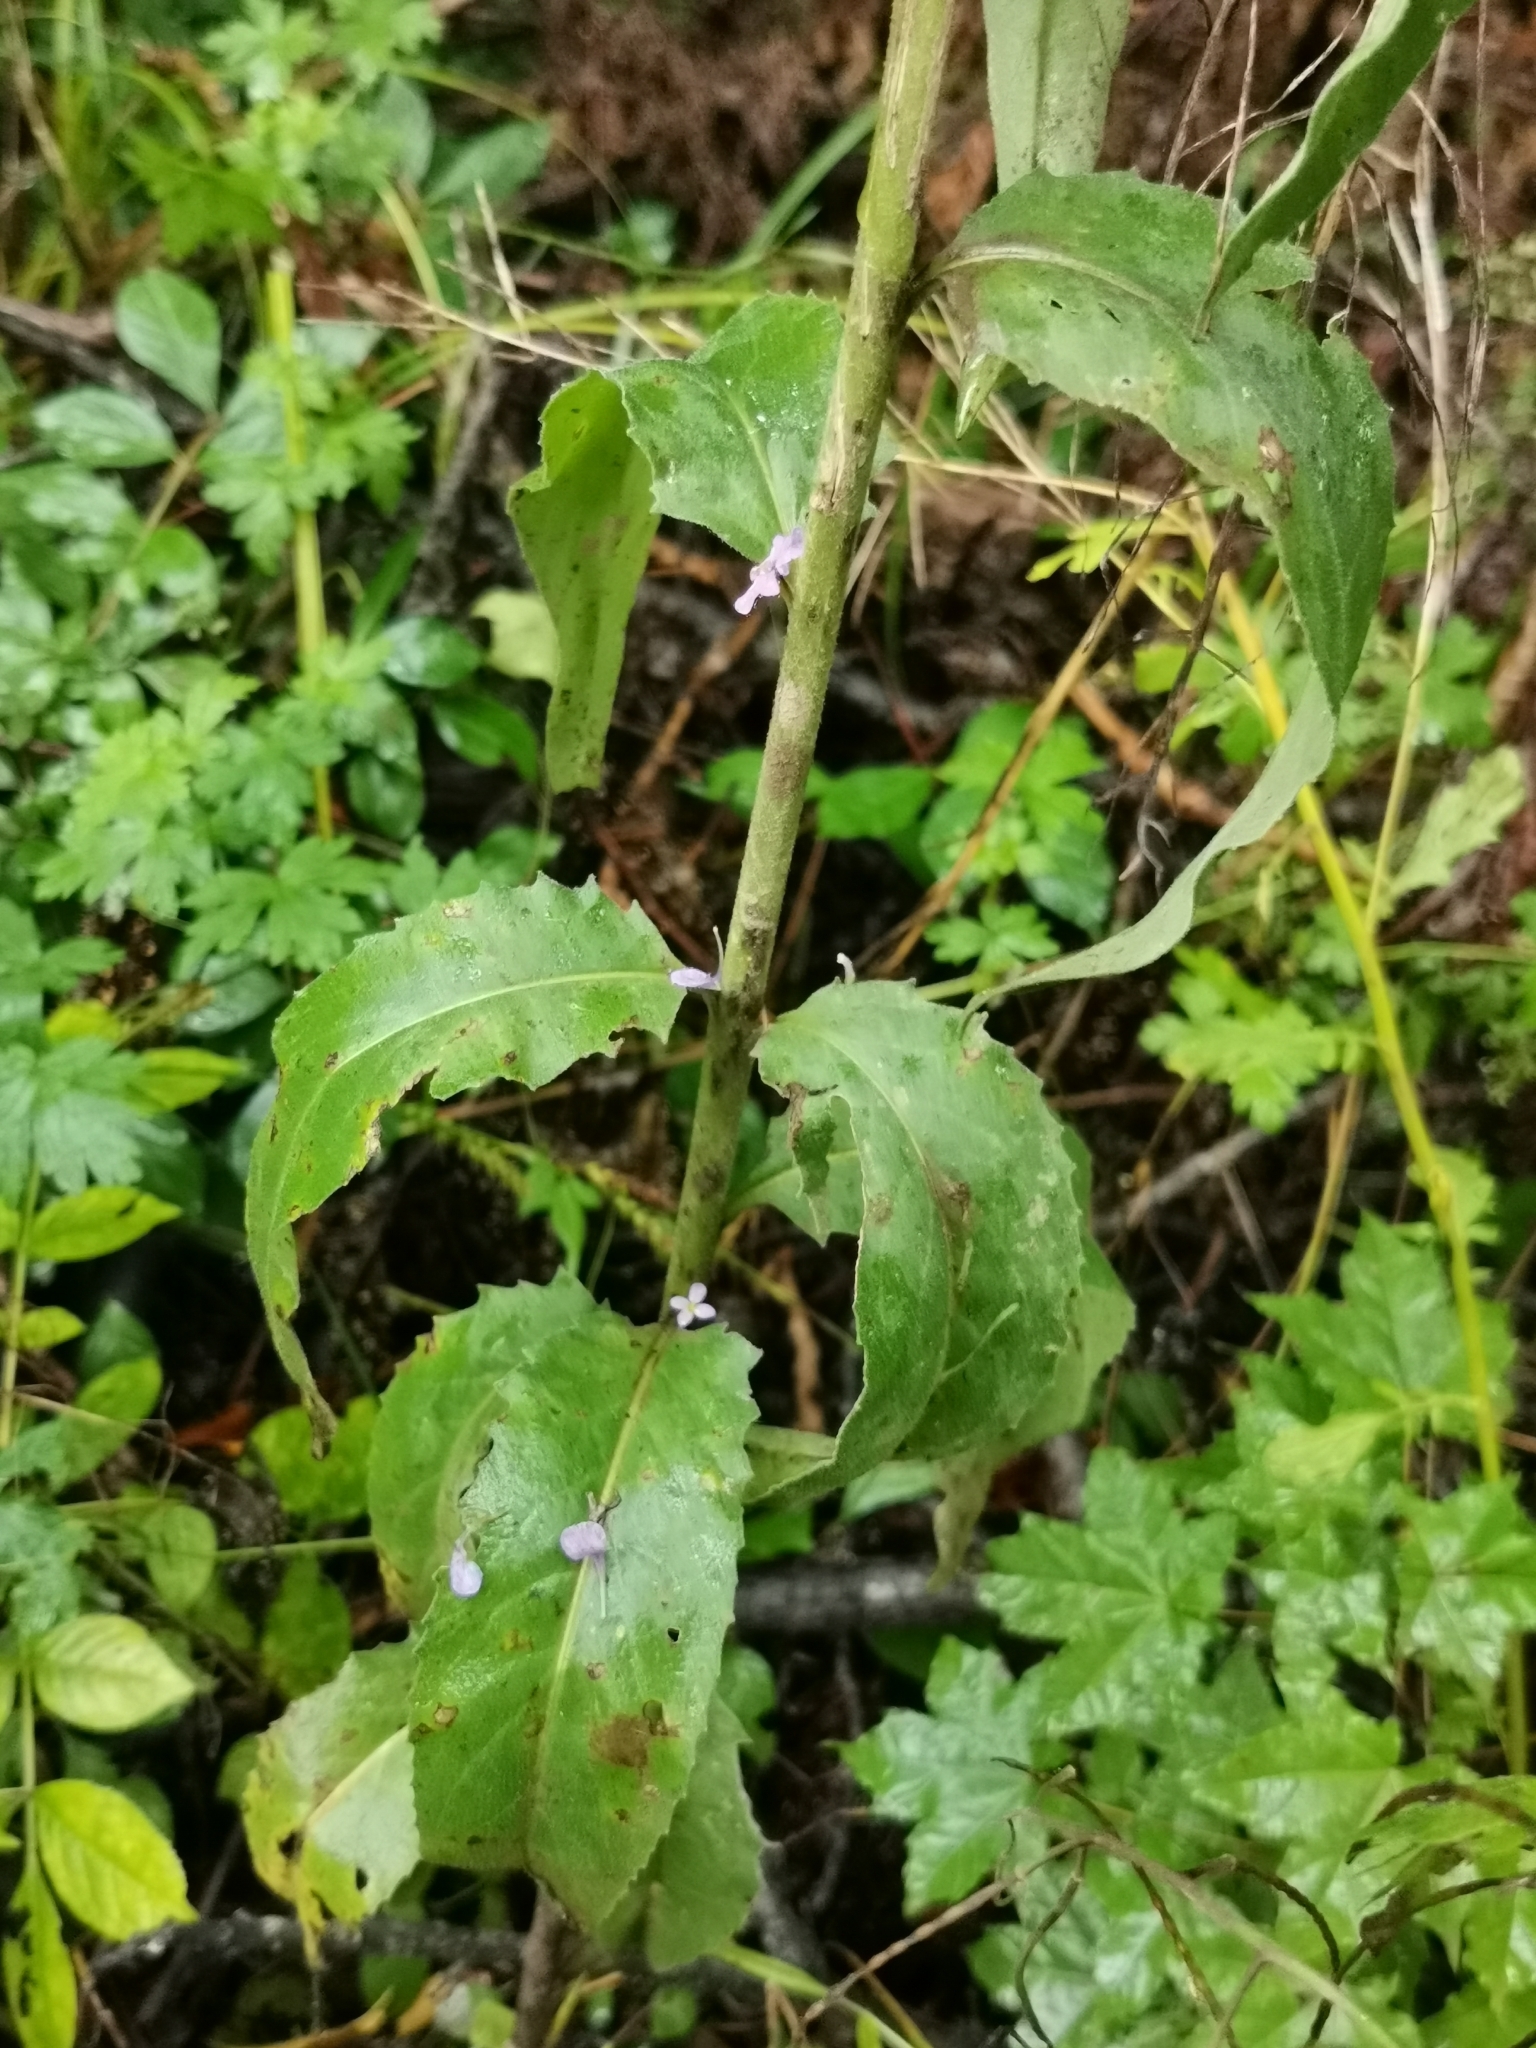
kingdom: Plantae
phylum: Tracheophyta
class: Magnoliopsida
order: Brassicales
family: Brassicaceae
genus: Hesperis
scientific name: Hesperis matronalis
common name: Dame's-violet
